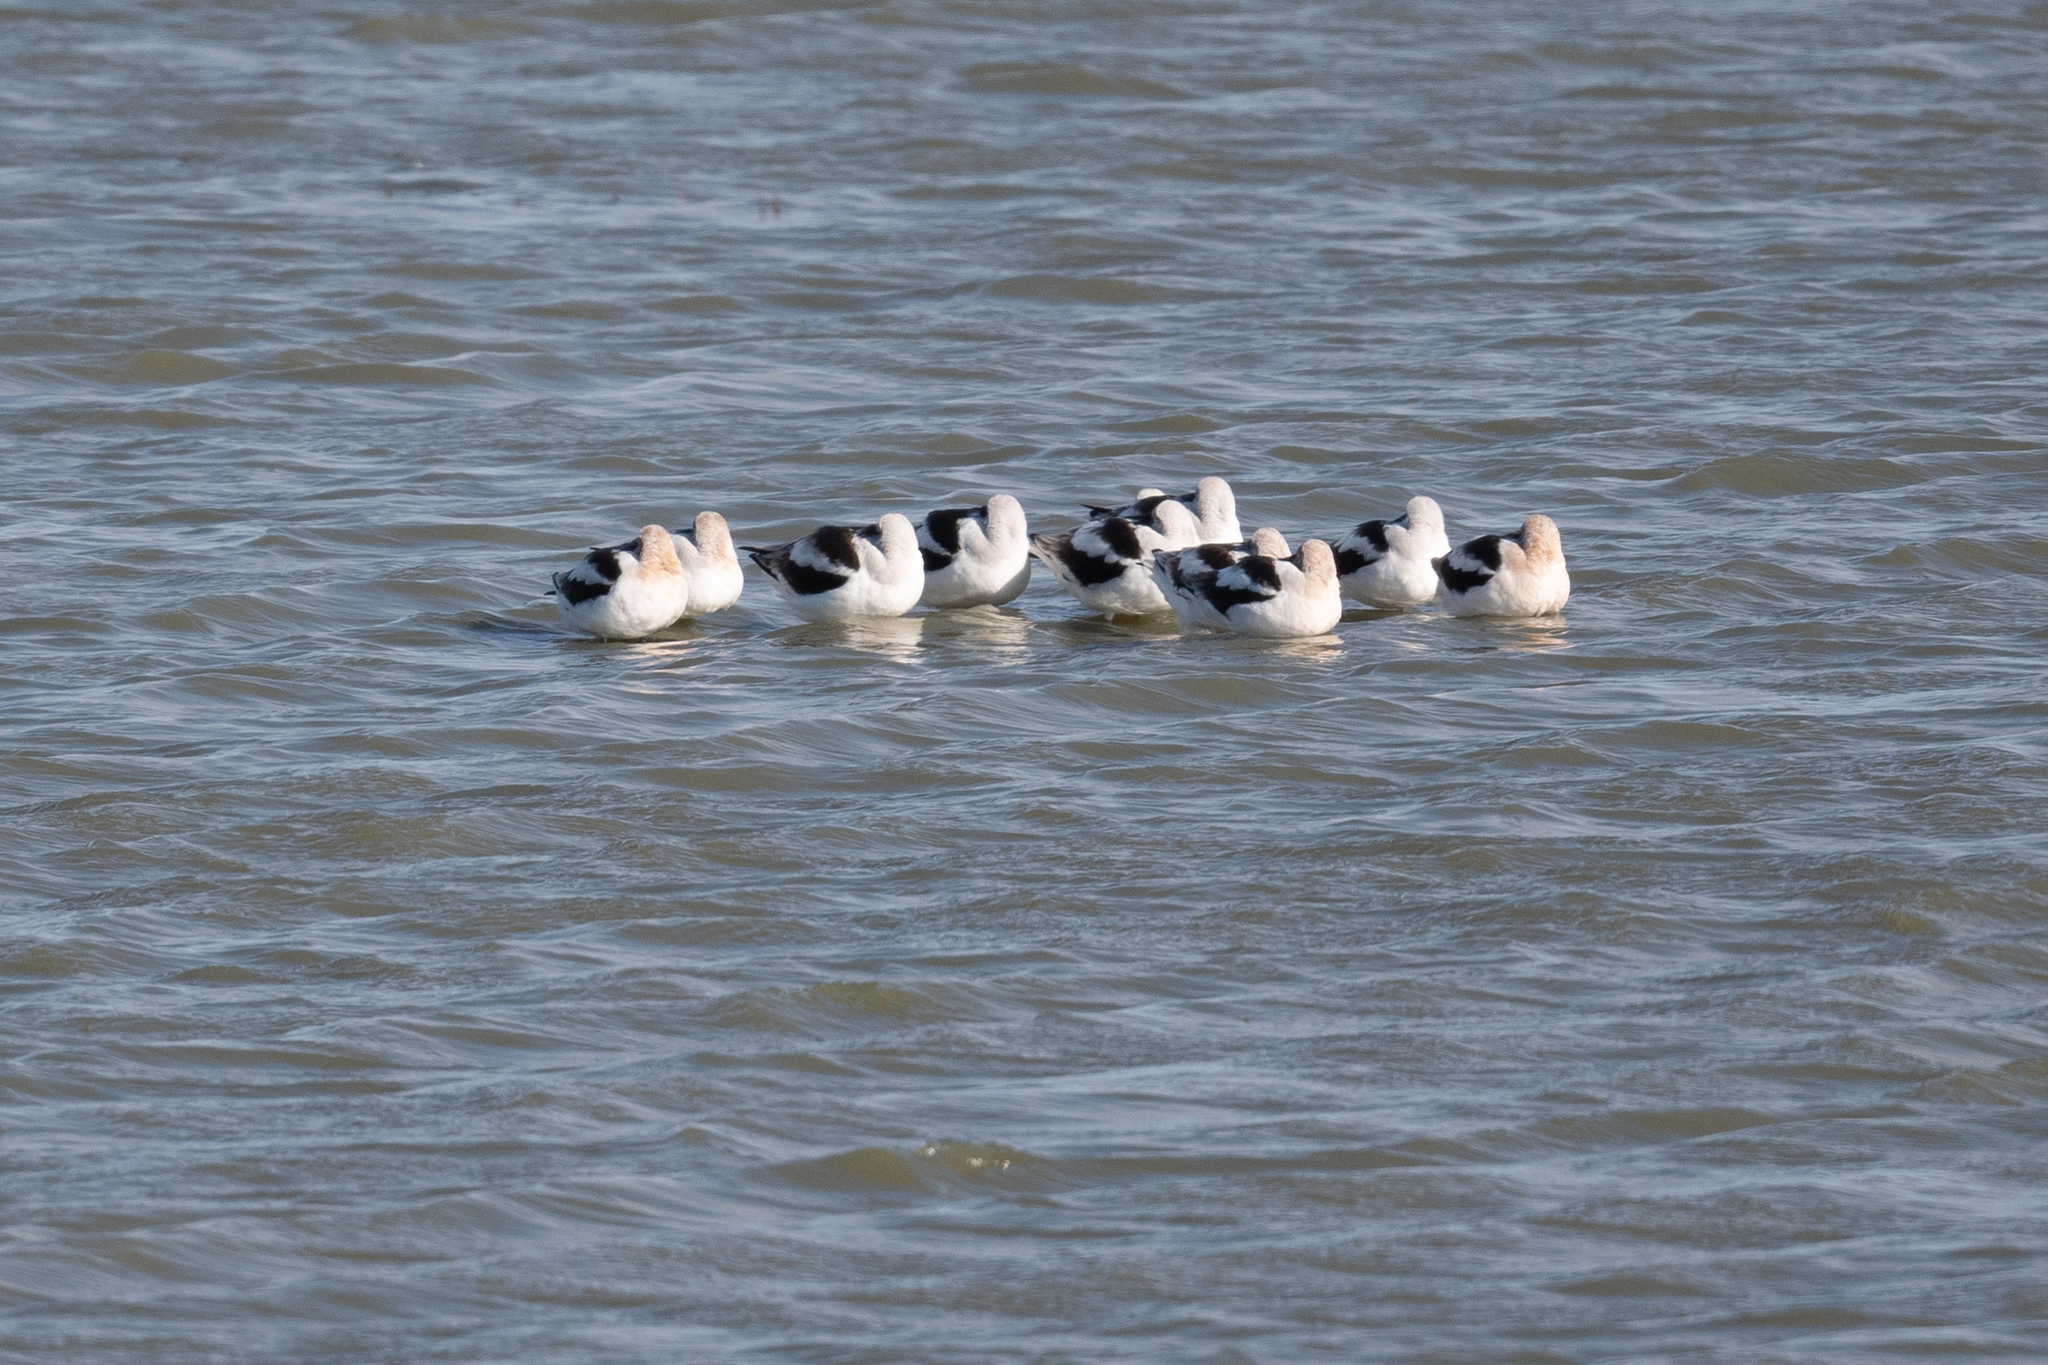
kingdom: Animalia
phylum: Chordata
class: Aves
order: Charadriiformes
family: Recurvirostridae
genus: Recurvirostra
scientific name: Recurvirostra americana
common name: American avocet
